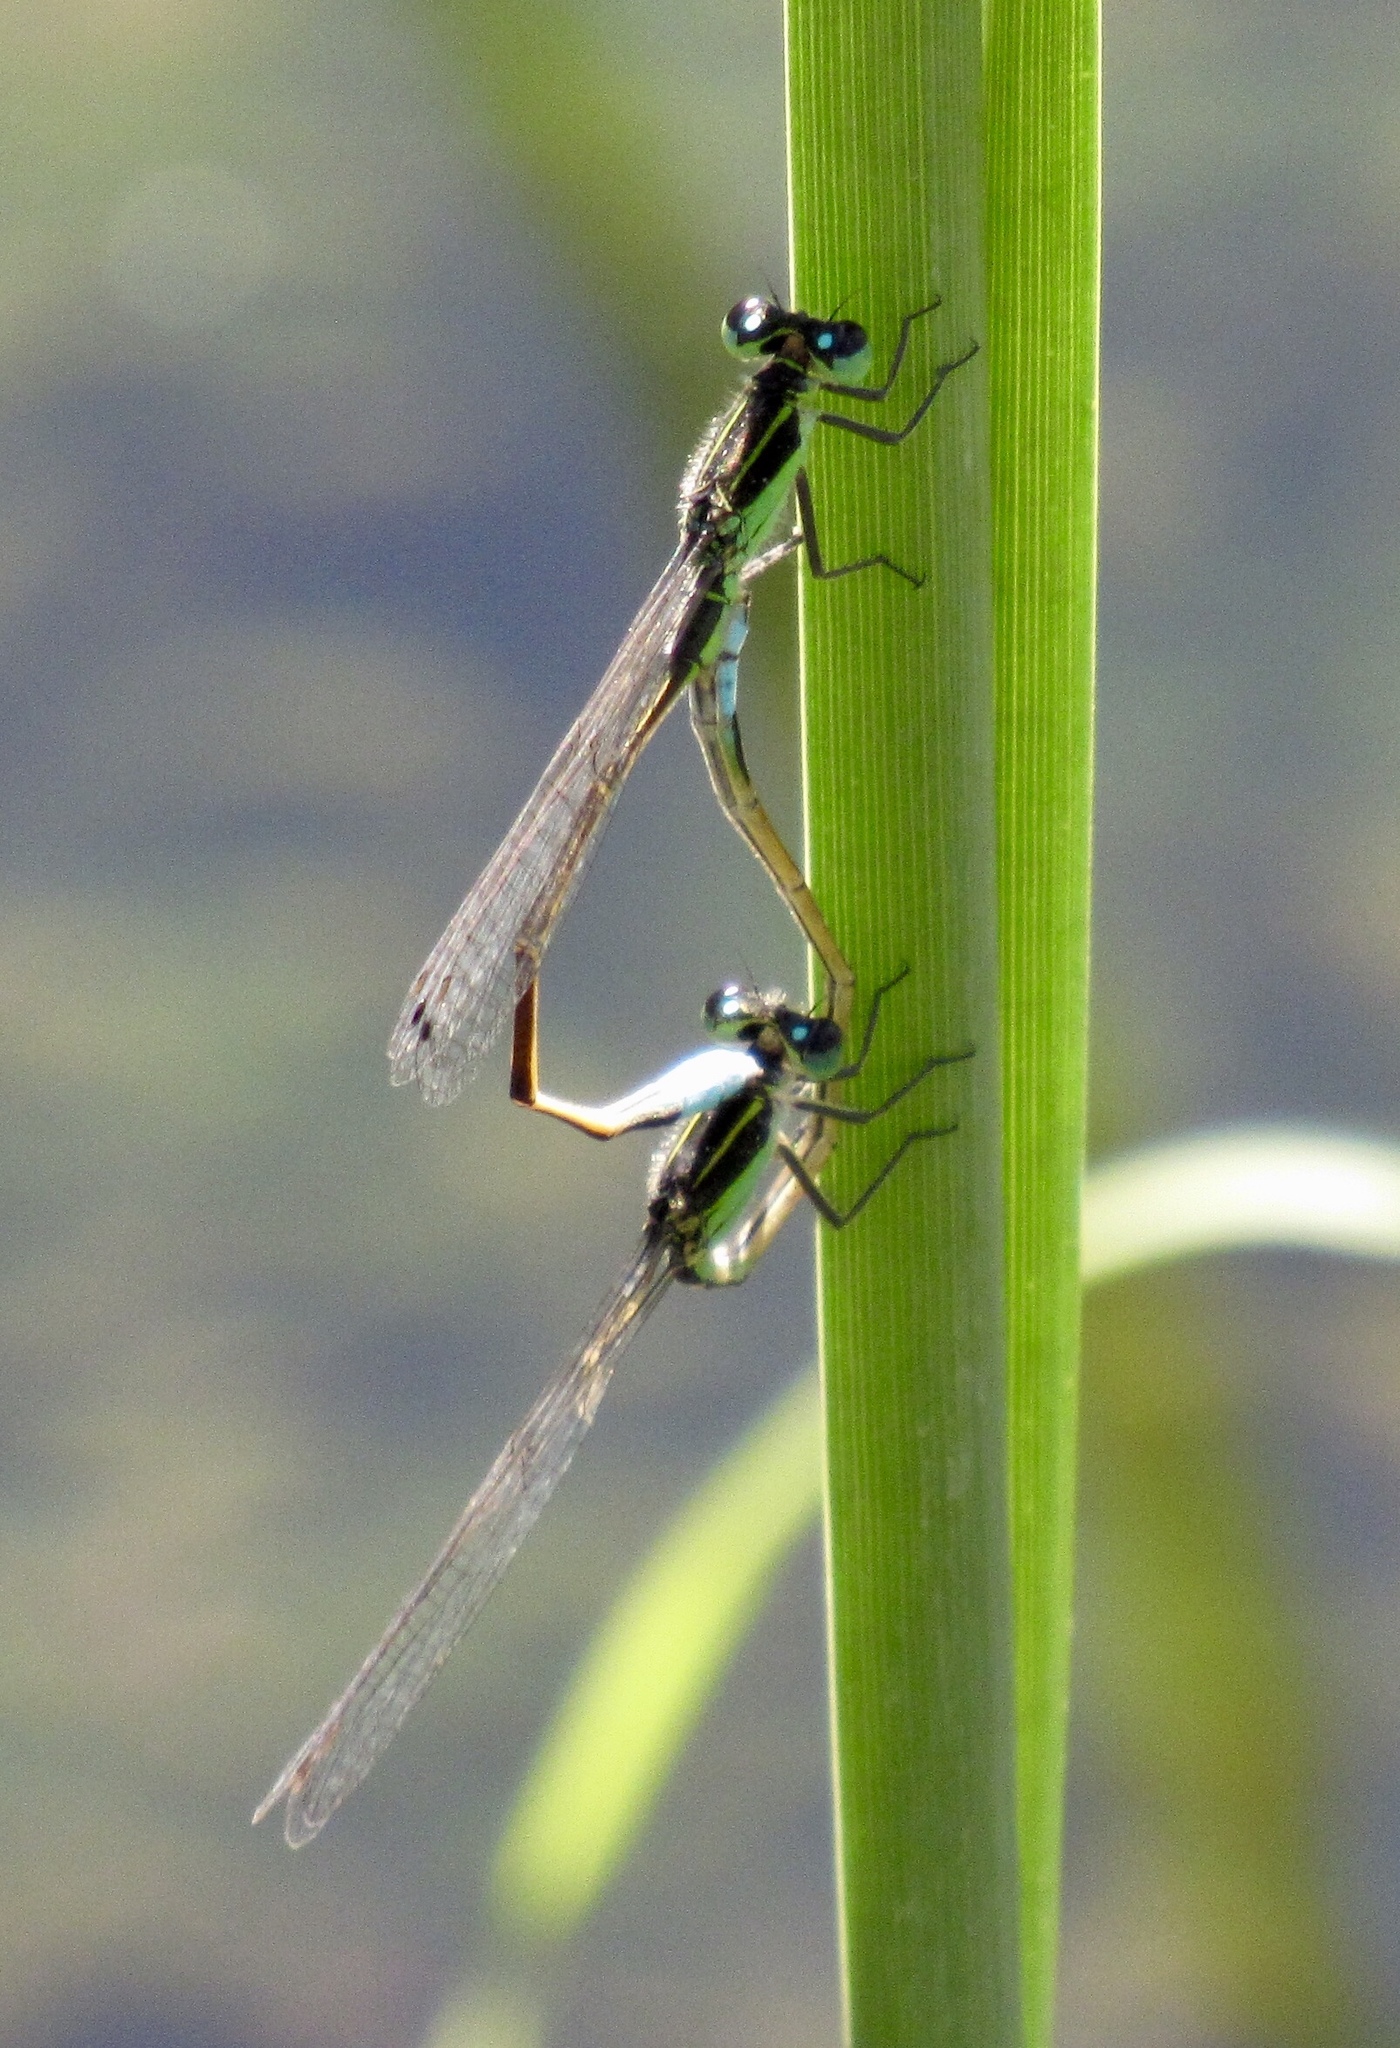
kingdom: Animalia
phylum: Arthropoda
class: Insecta
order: Odonata
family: Coenagrionidae
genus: Ischnura
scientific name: Ischnura ramburii
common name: Rambur's forktail
